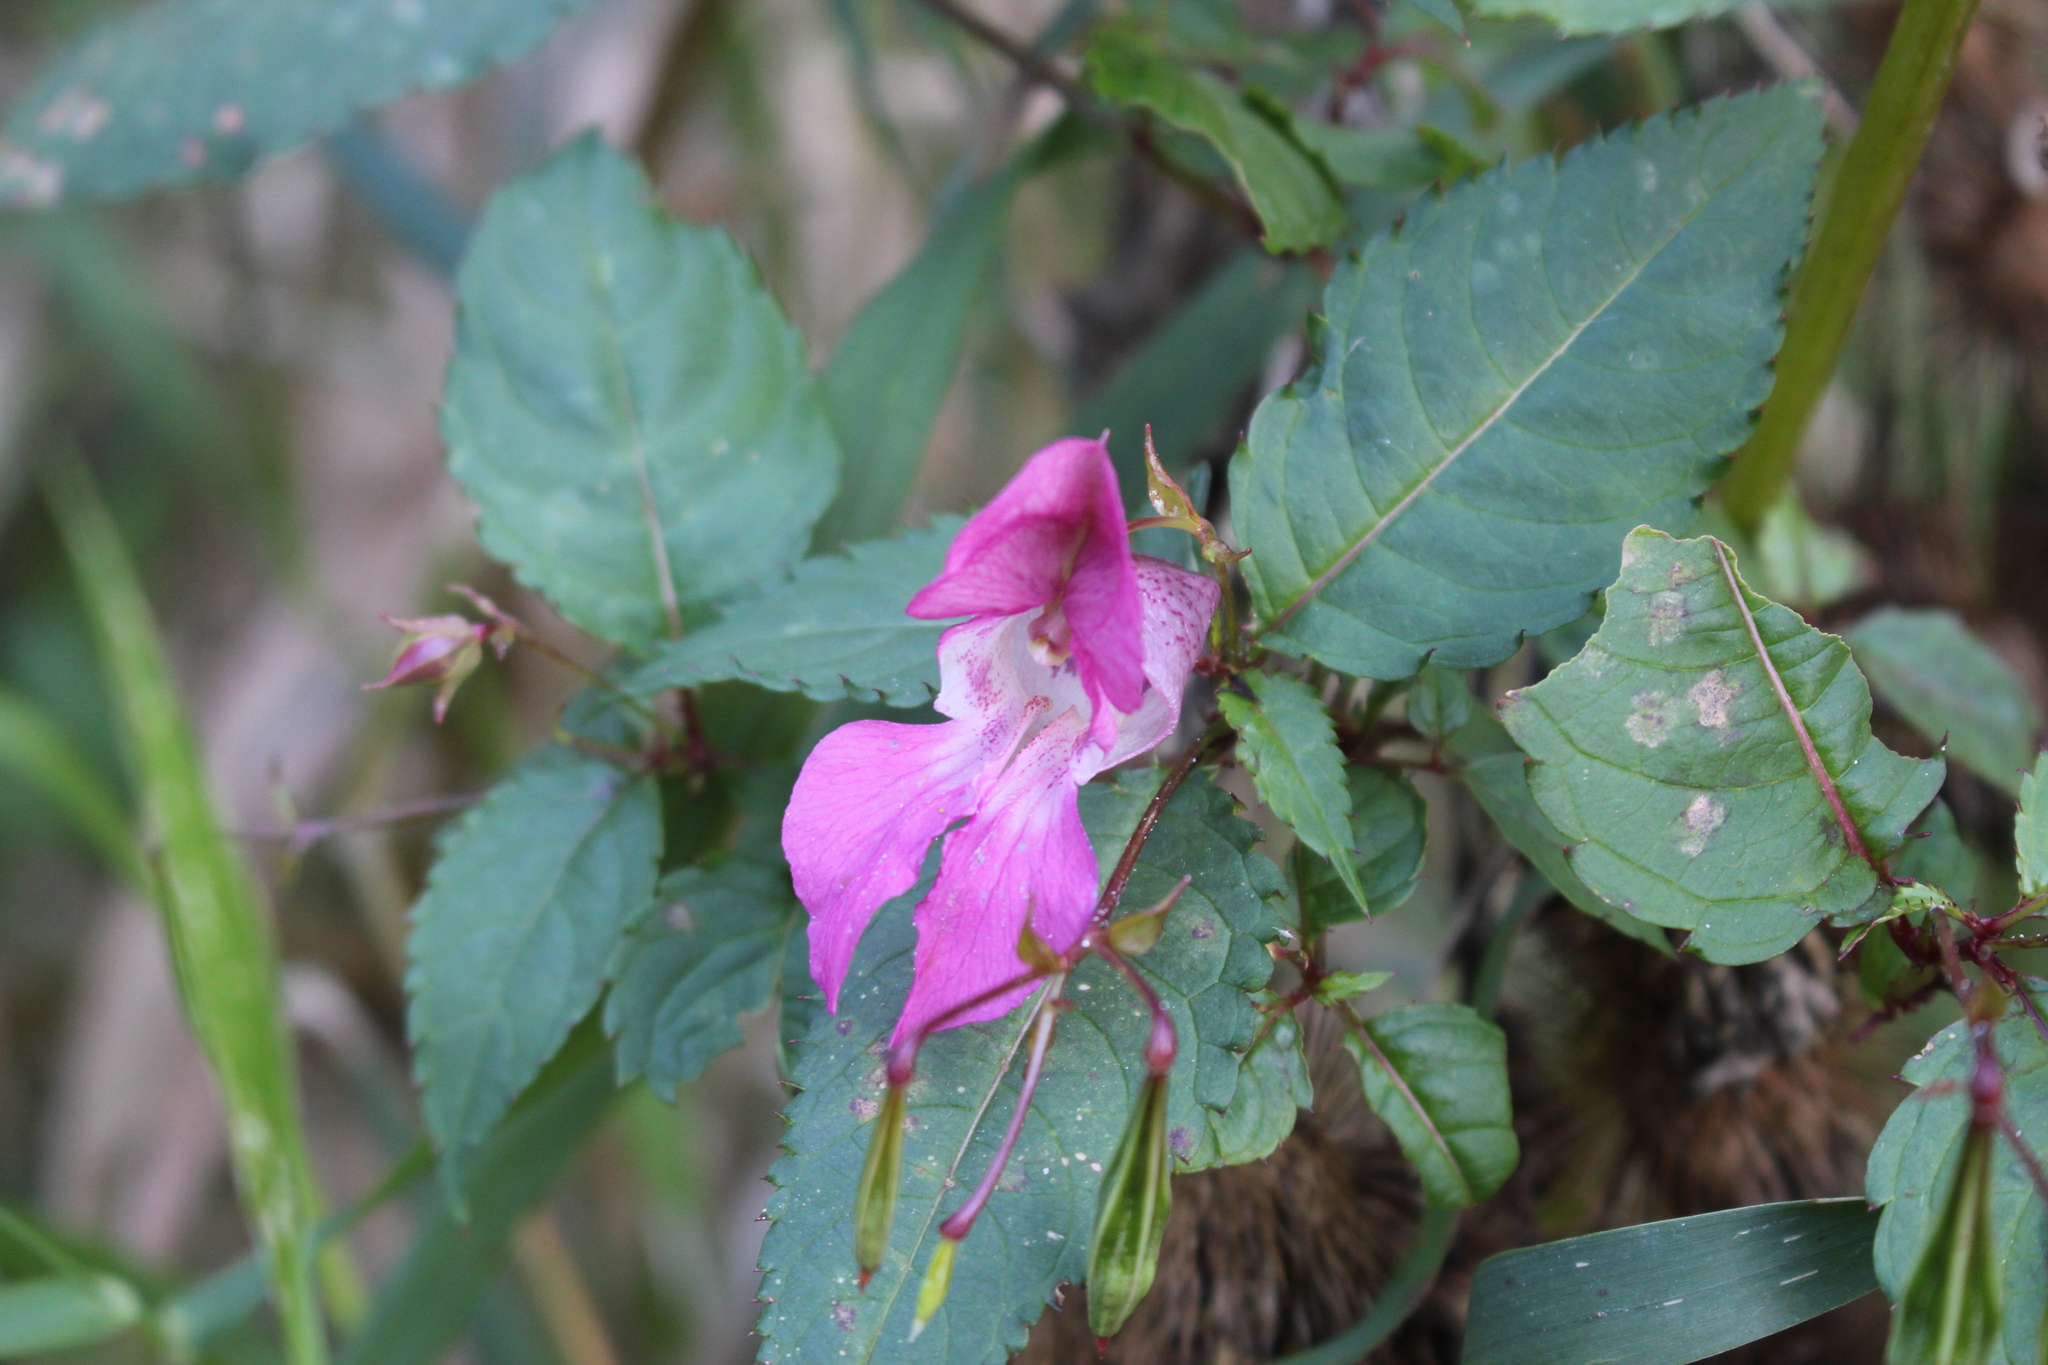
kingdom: Plantae
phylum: Tracheophyta
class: Magnoliopsida
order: Ericales
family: Balsaminaceae
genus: Impatiens
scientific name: Impatiens glandulifera
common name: Himalayan balsam
